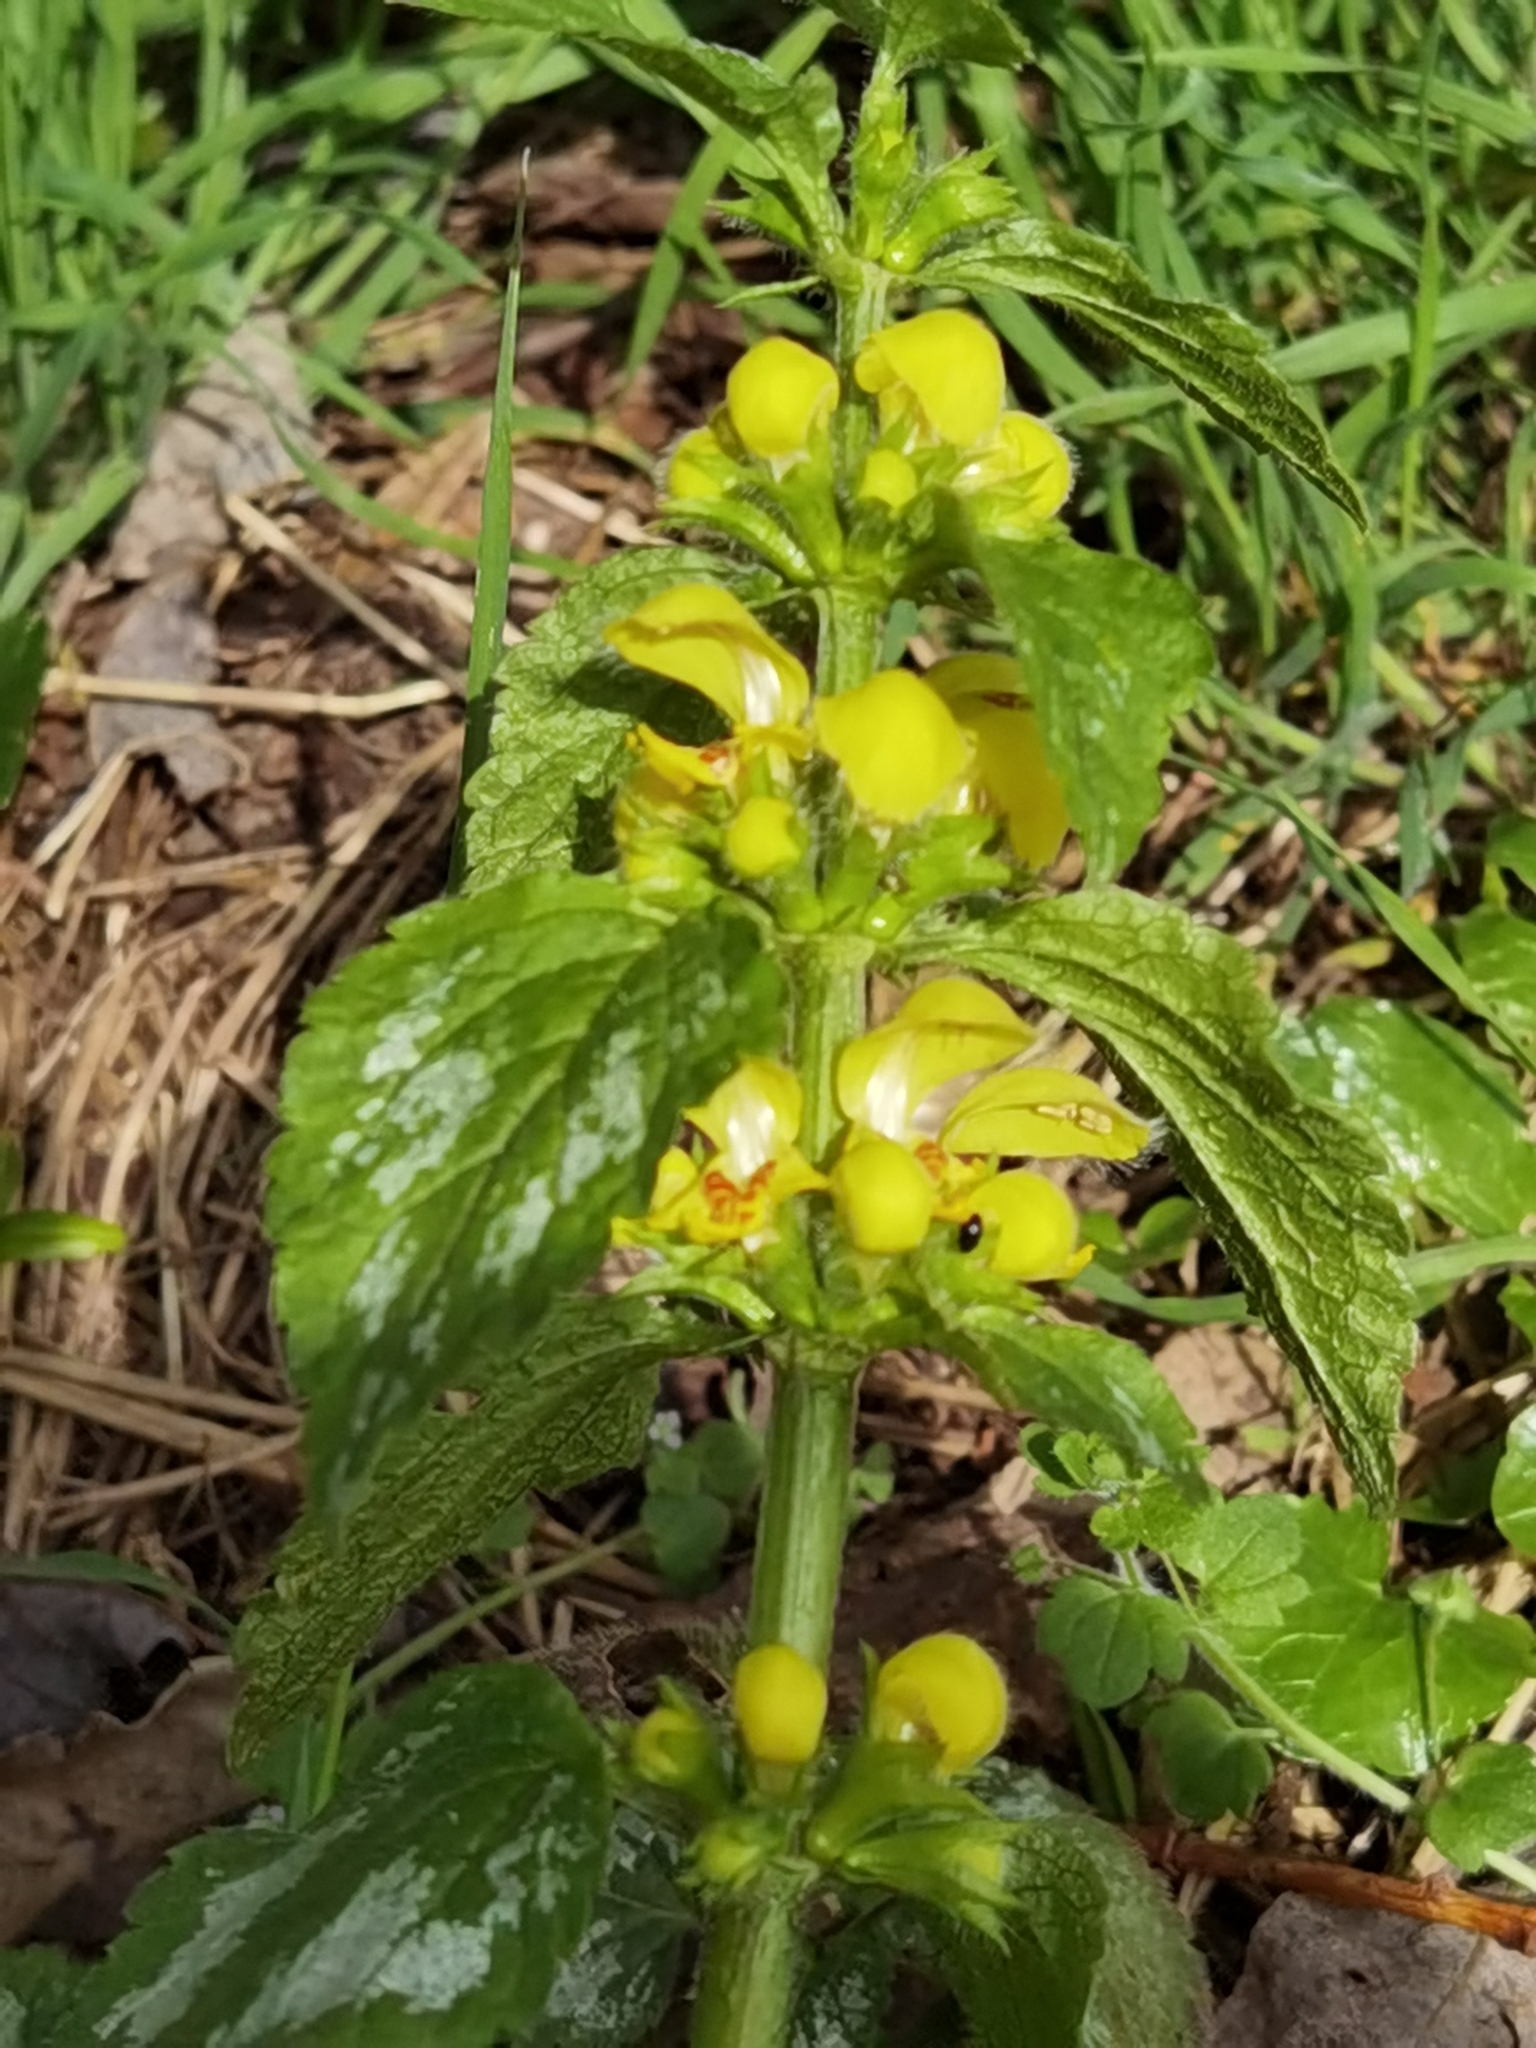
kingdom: Plantae
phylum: Tracheophyta
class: Magnoliopsida
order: Lamiales
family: Lamiaceae
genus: Lamium
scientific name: Lamium galeobdolon
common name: Yellow archangel
